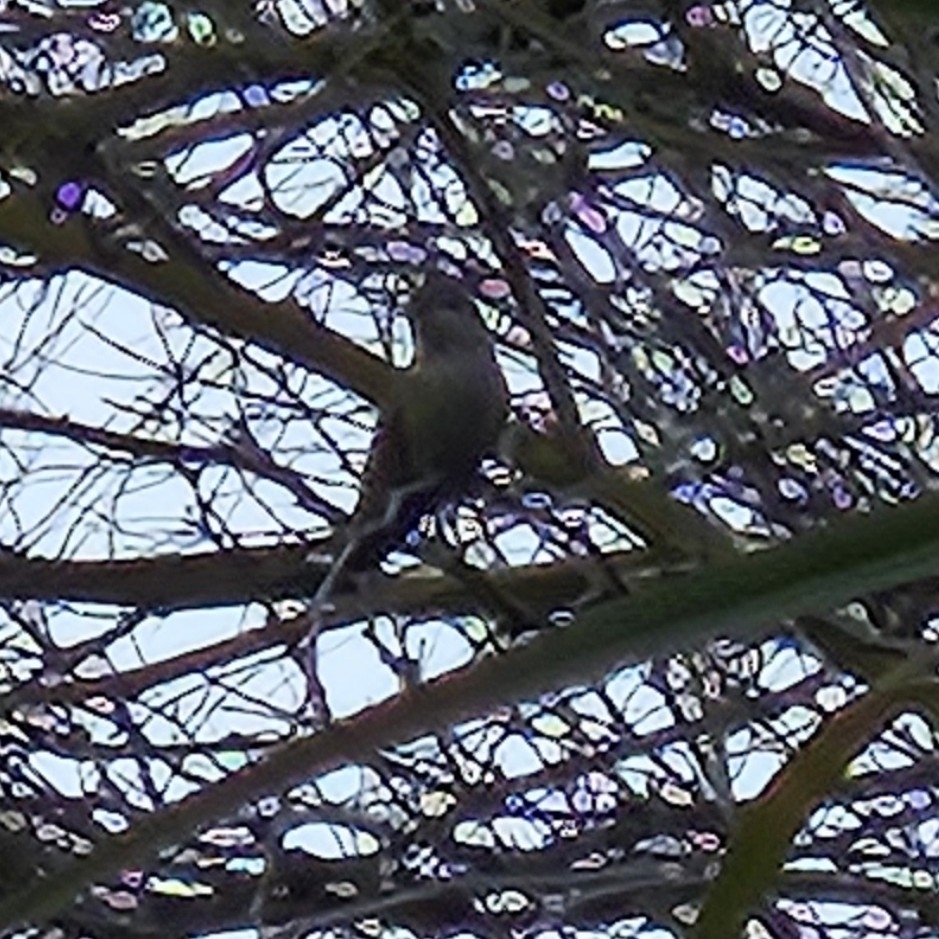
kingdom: Animalia
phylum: Chordata
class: Aves
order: Apodiformes
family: Trochilidae
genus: Calypte
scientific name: Calypte anna
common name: Anna's hummingbird
